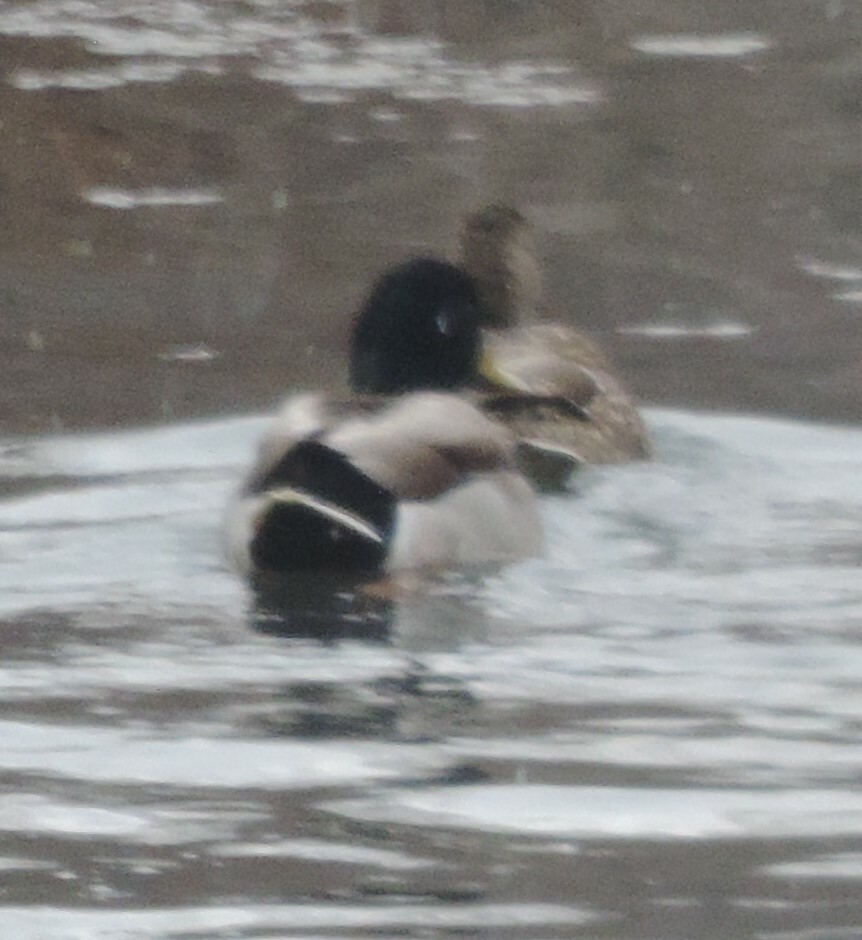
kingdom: Animalia
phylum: Chordata
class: Aves
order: Anseriformes
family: Anatidae
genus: Anas
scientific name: Anas platyrhynchos
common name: Mallard
